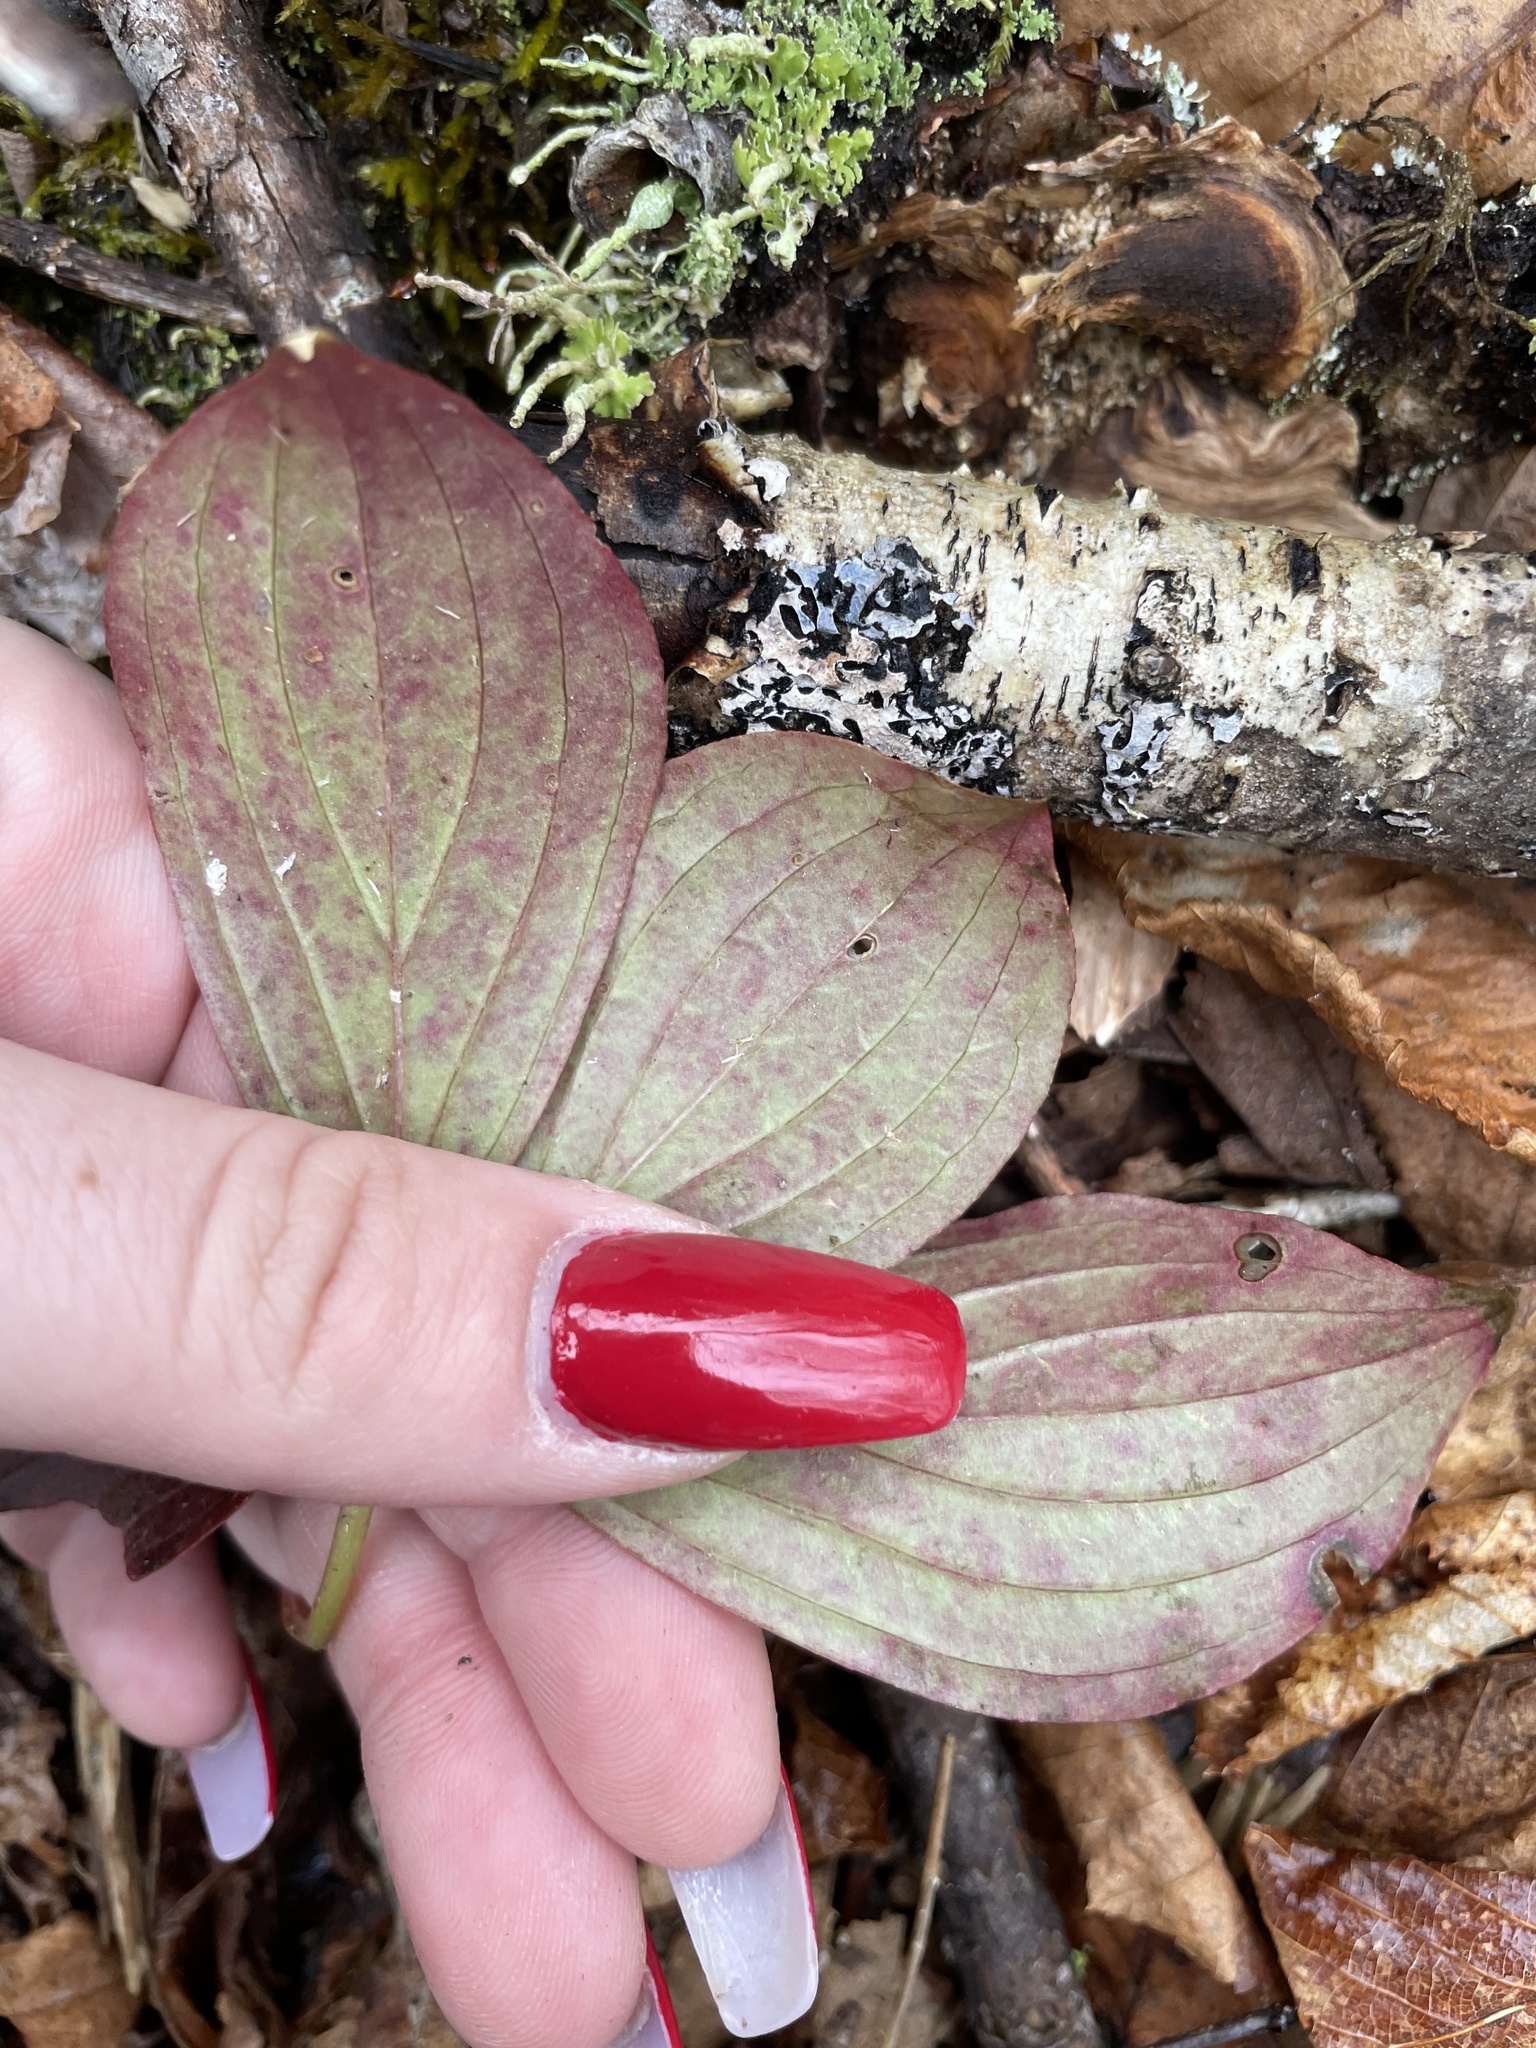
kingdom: Plantae
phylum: Tracheophyta
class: Magnoliopsida
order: Cornales
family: Cornaceae
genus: Cornus
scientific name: Cornus canadensis
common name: Creeping dogwood
